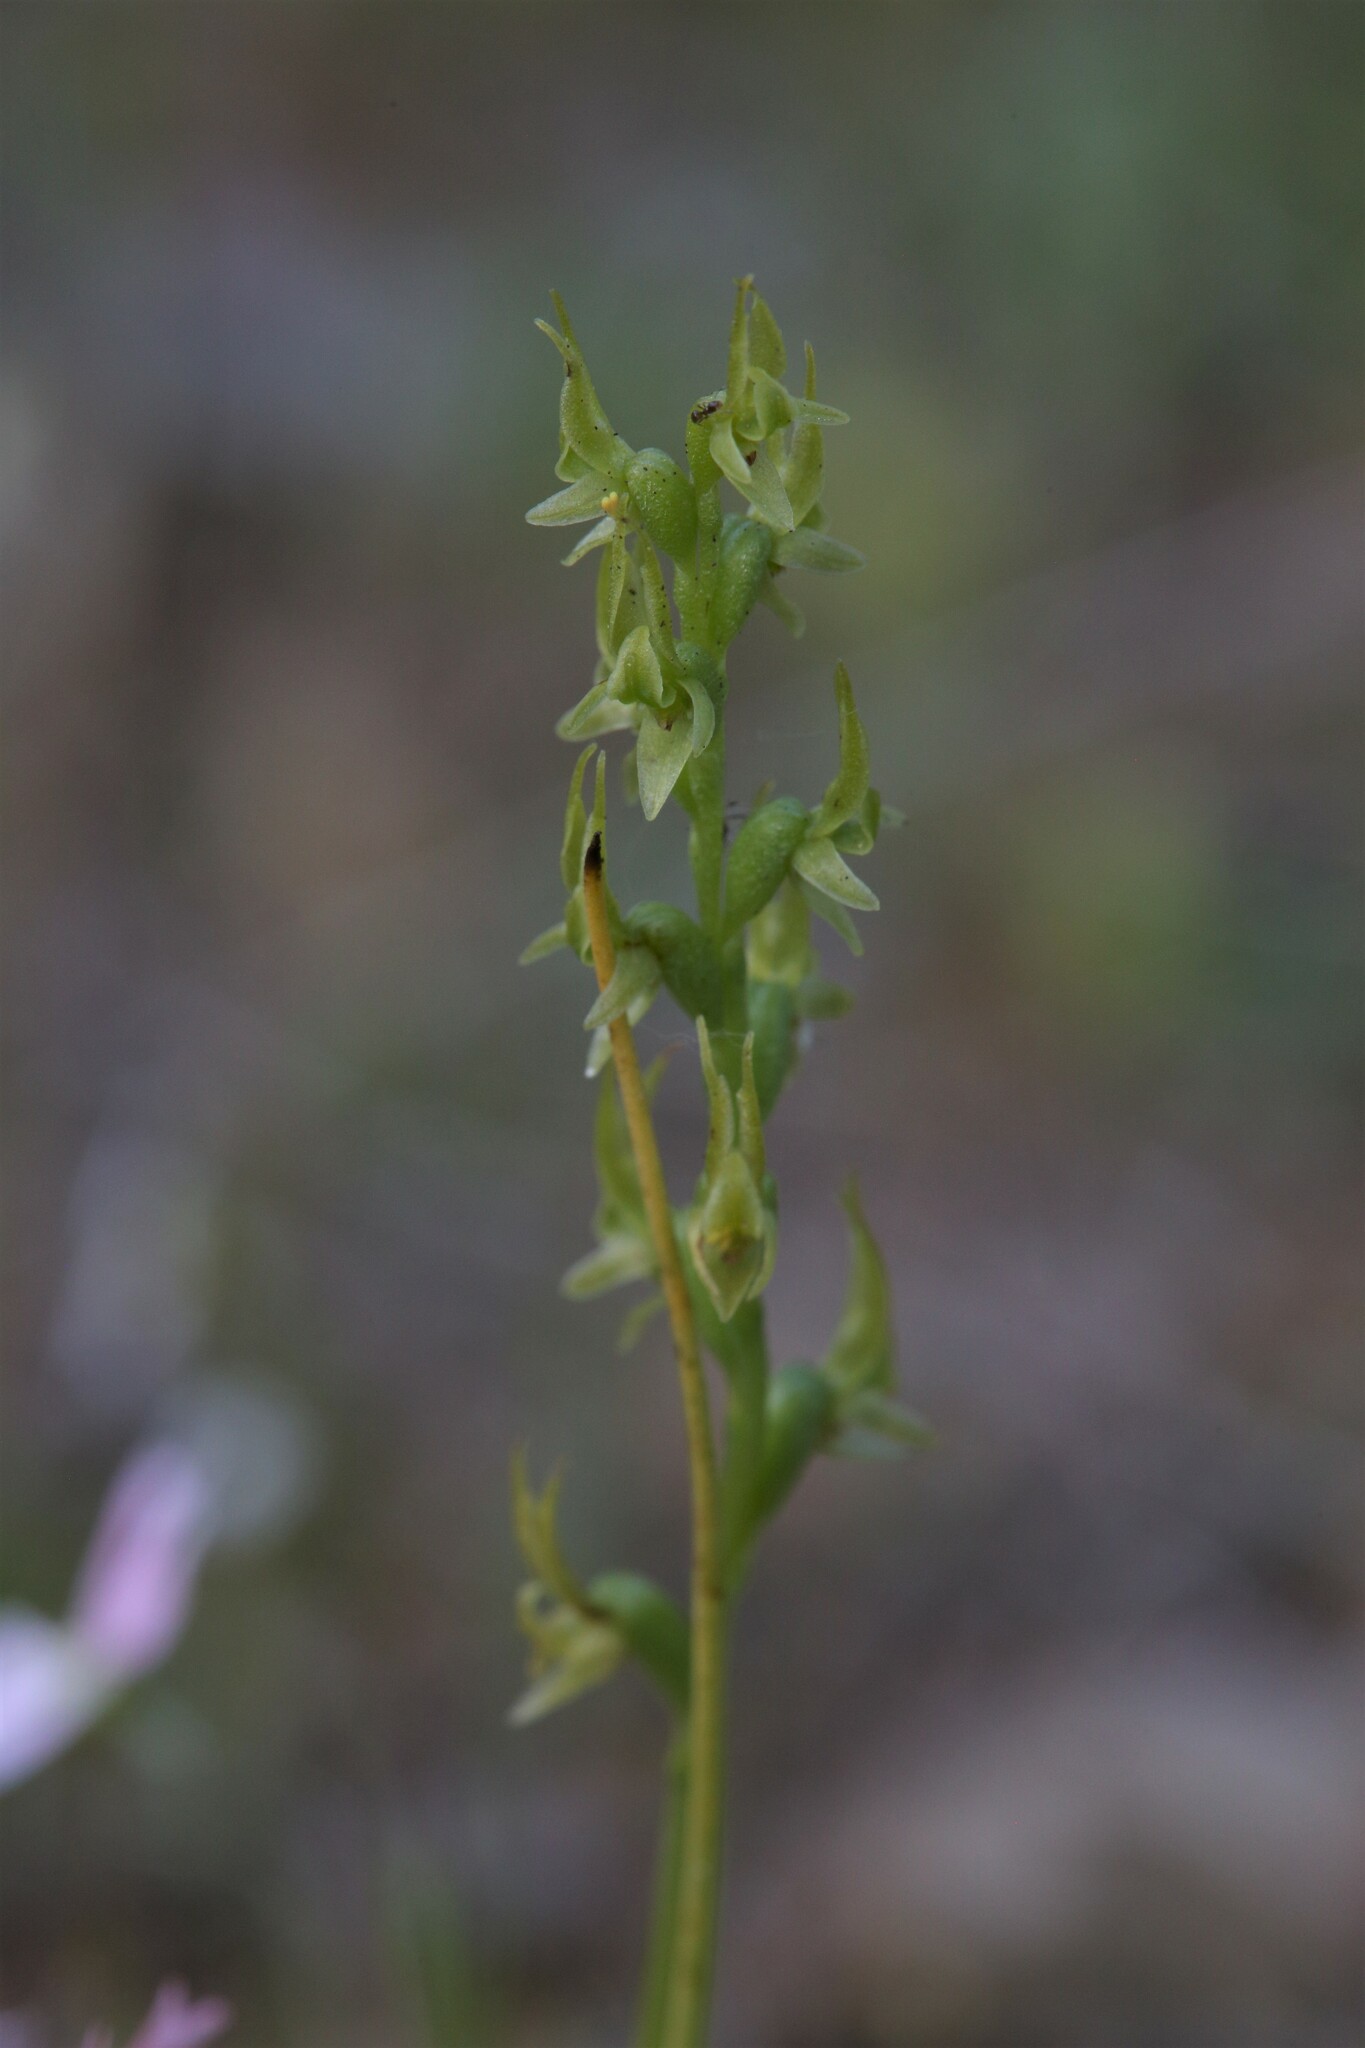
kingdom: Plantae
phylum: Tracheophyta
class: Liliopsida
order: Asparagales
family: Orchidaceae
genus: Prasophyllum
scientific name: Prasophyllum gracile
